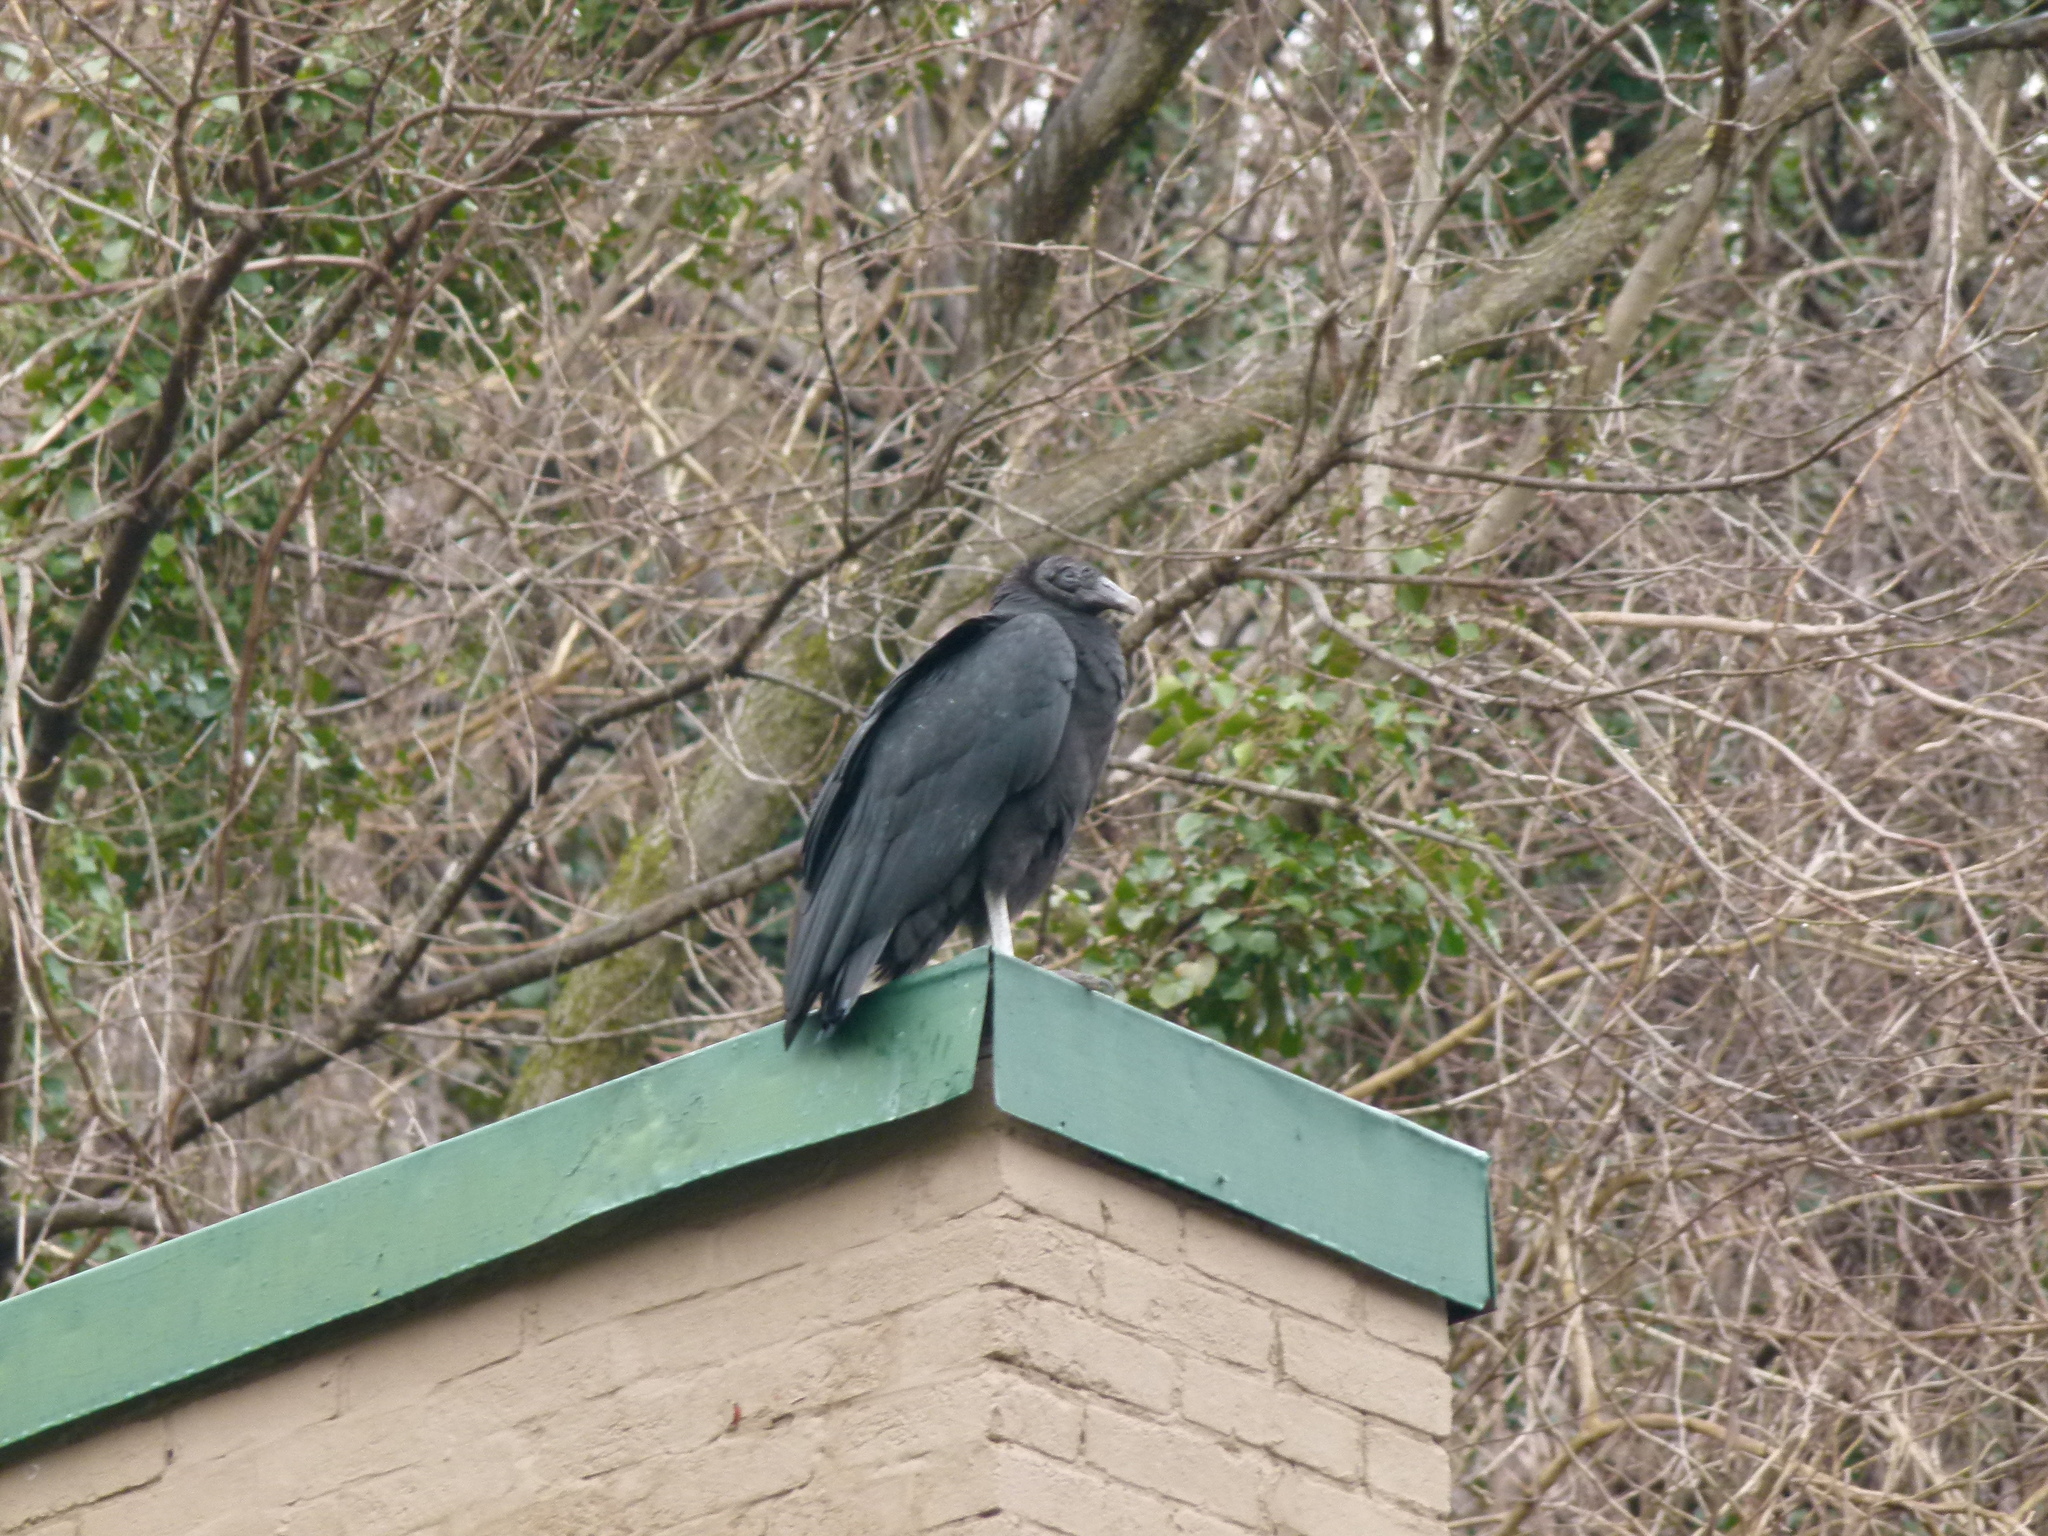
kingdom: Animalia
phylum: Chordata
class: Aves
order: Accipitriformes
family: Cathartidae
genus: Coragyps
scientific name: Coragyps atratus
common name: Black vulture
